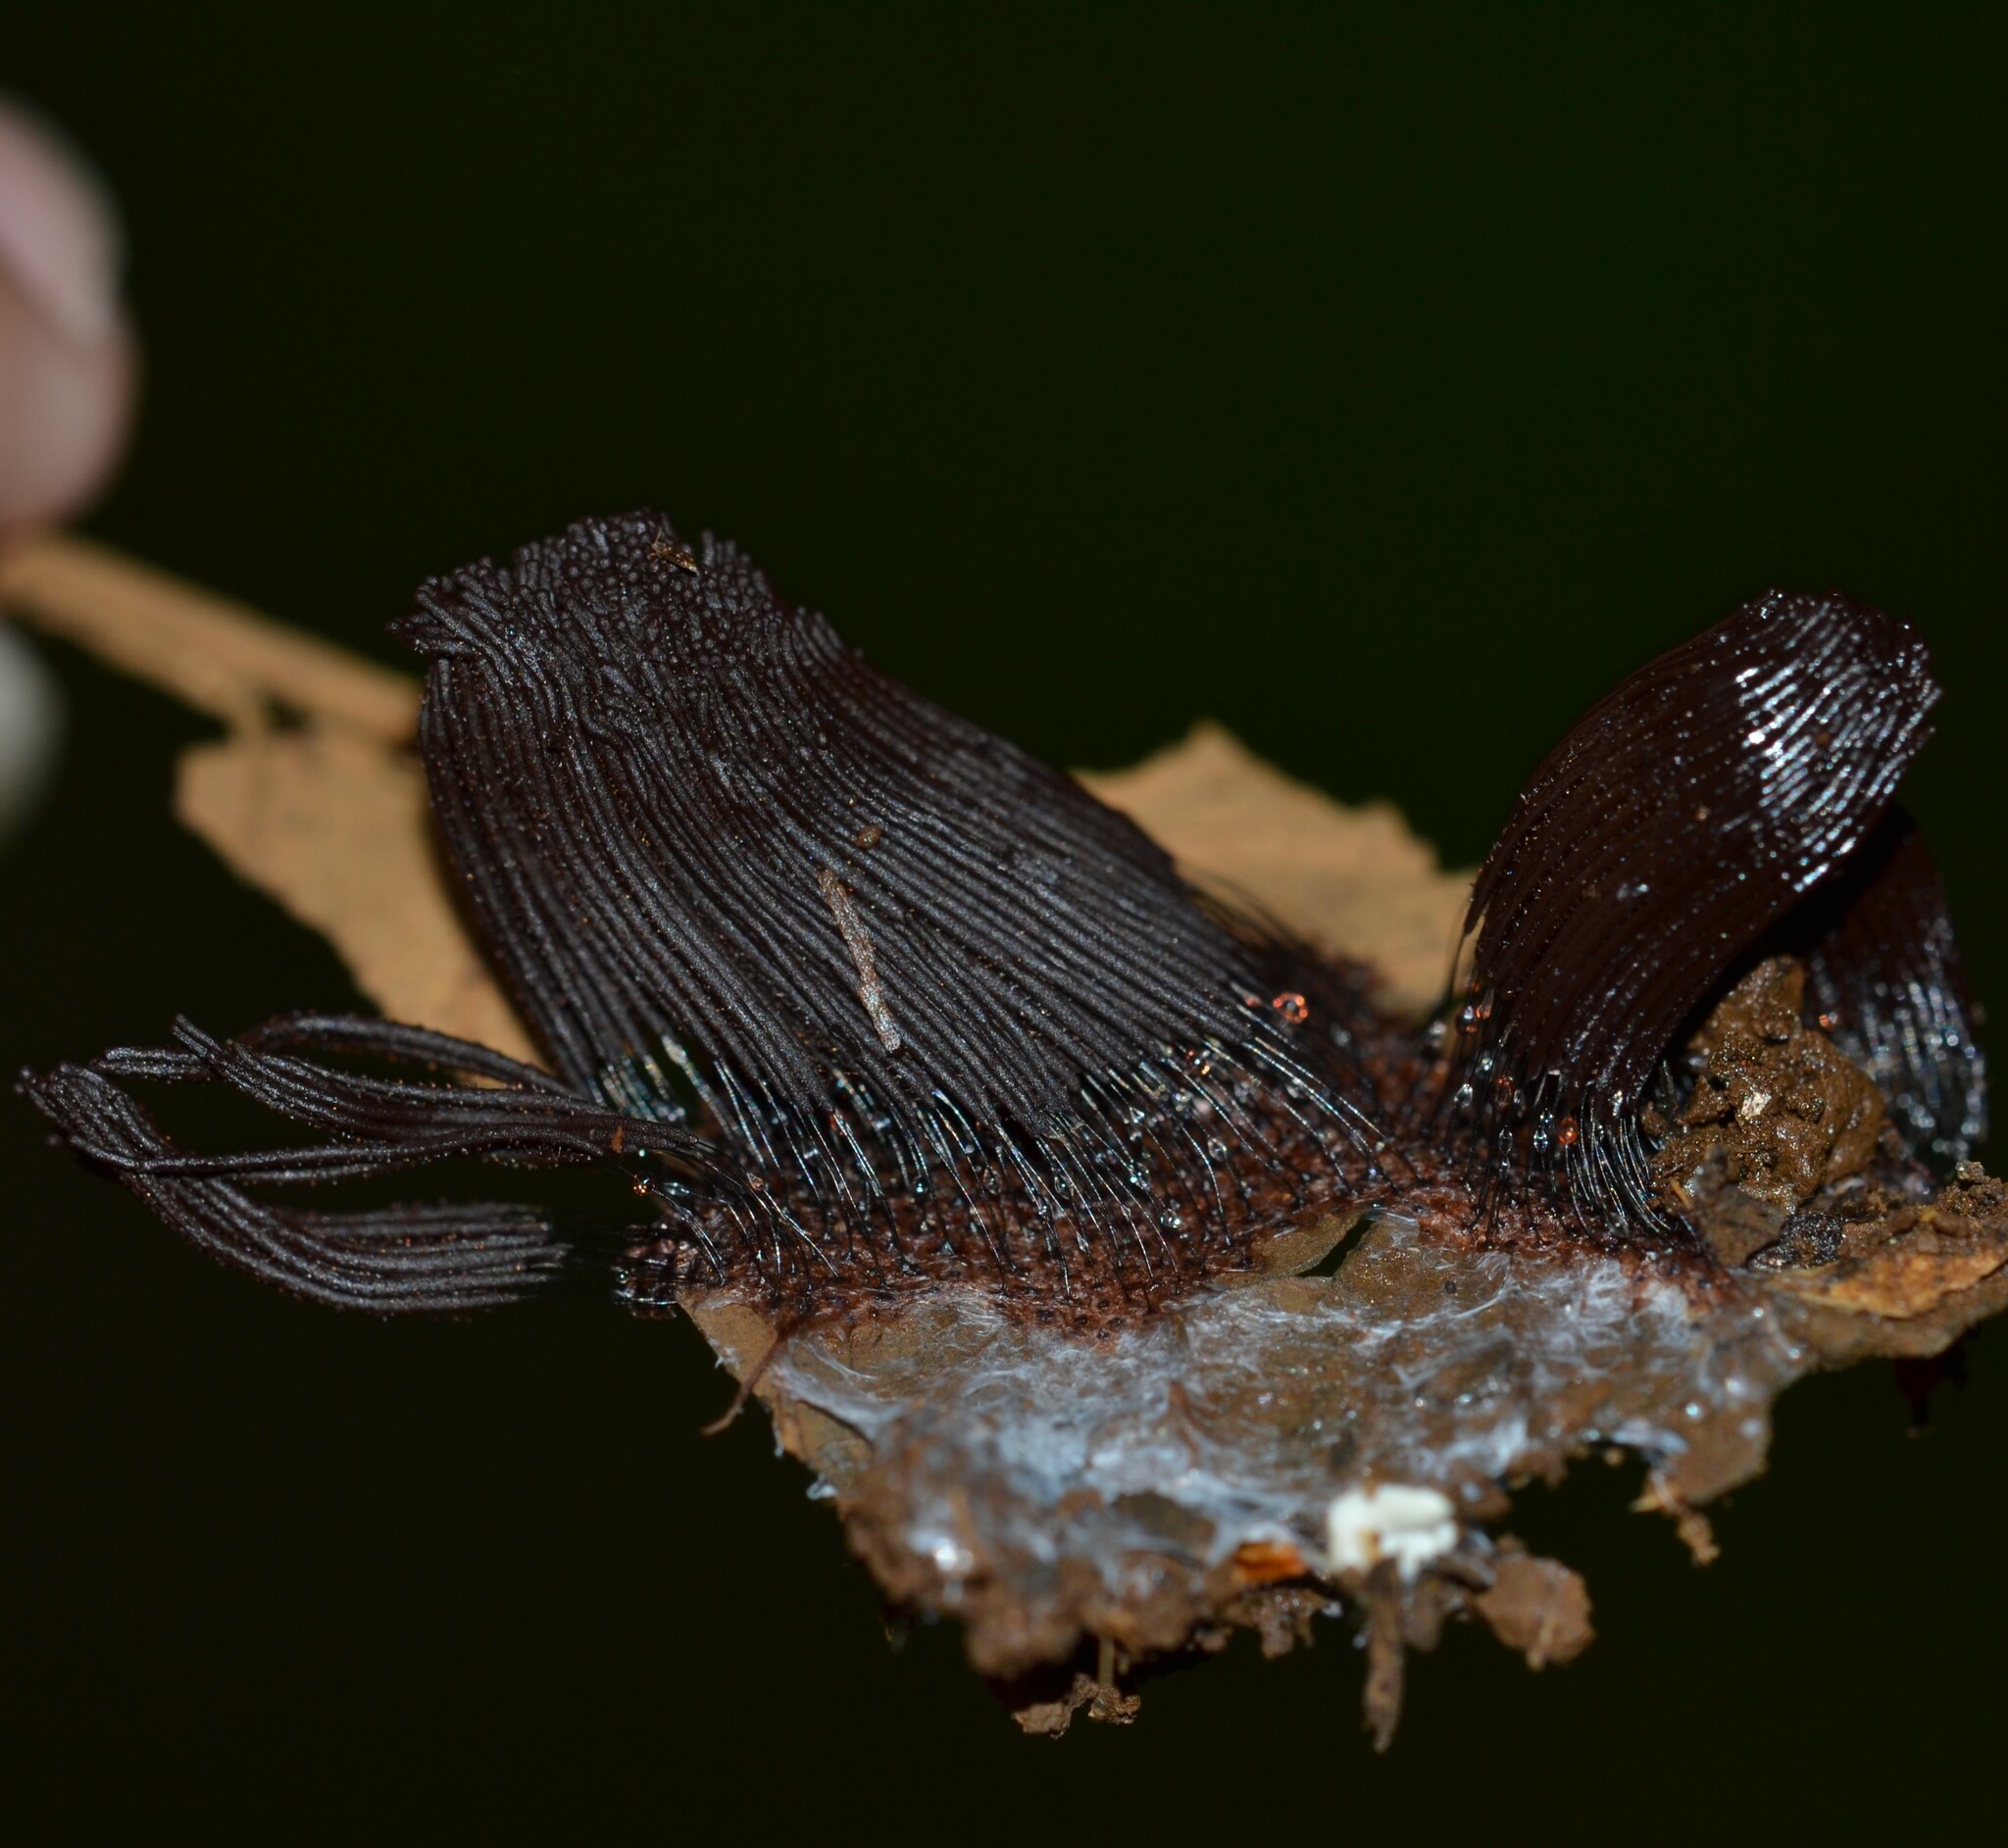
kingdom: Protozoa
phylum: Mycetozoa
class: Myxomycetes
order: Stemonitidales
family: Stemonitidaceae
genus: Stemonitis
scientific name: Stemonitis splendens
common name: Chocolate tube slime
